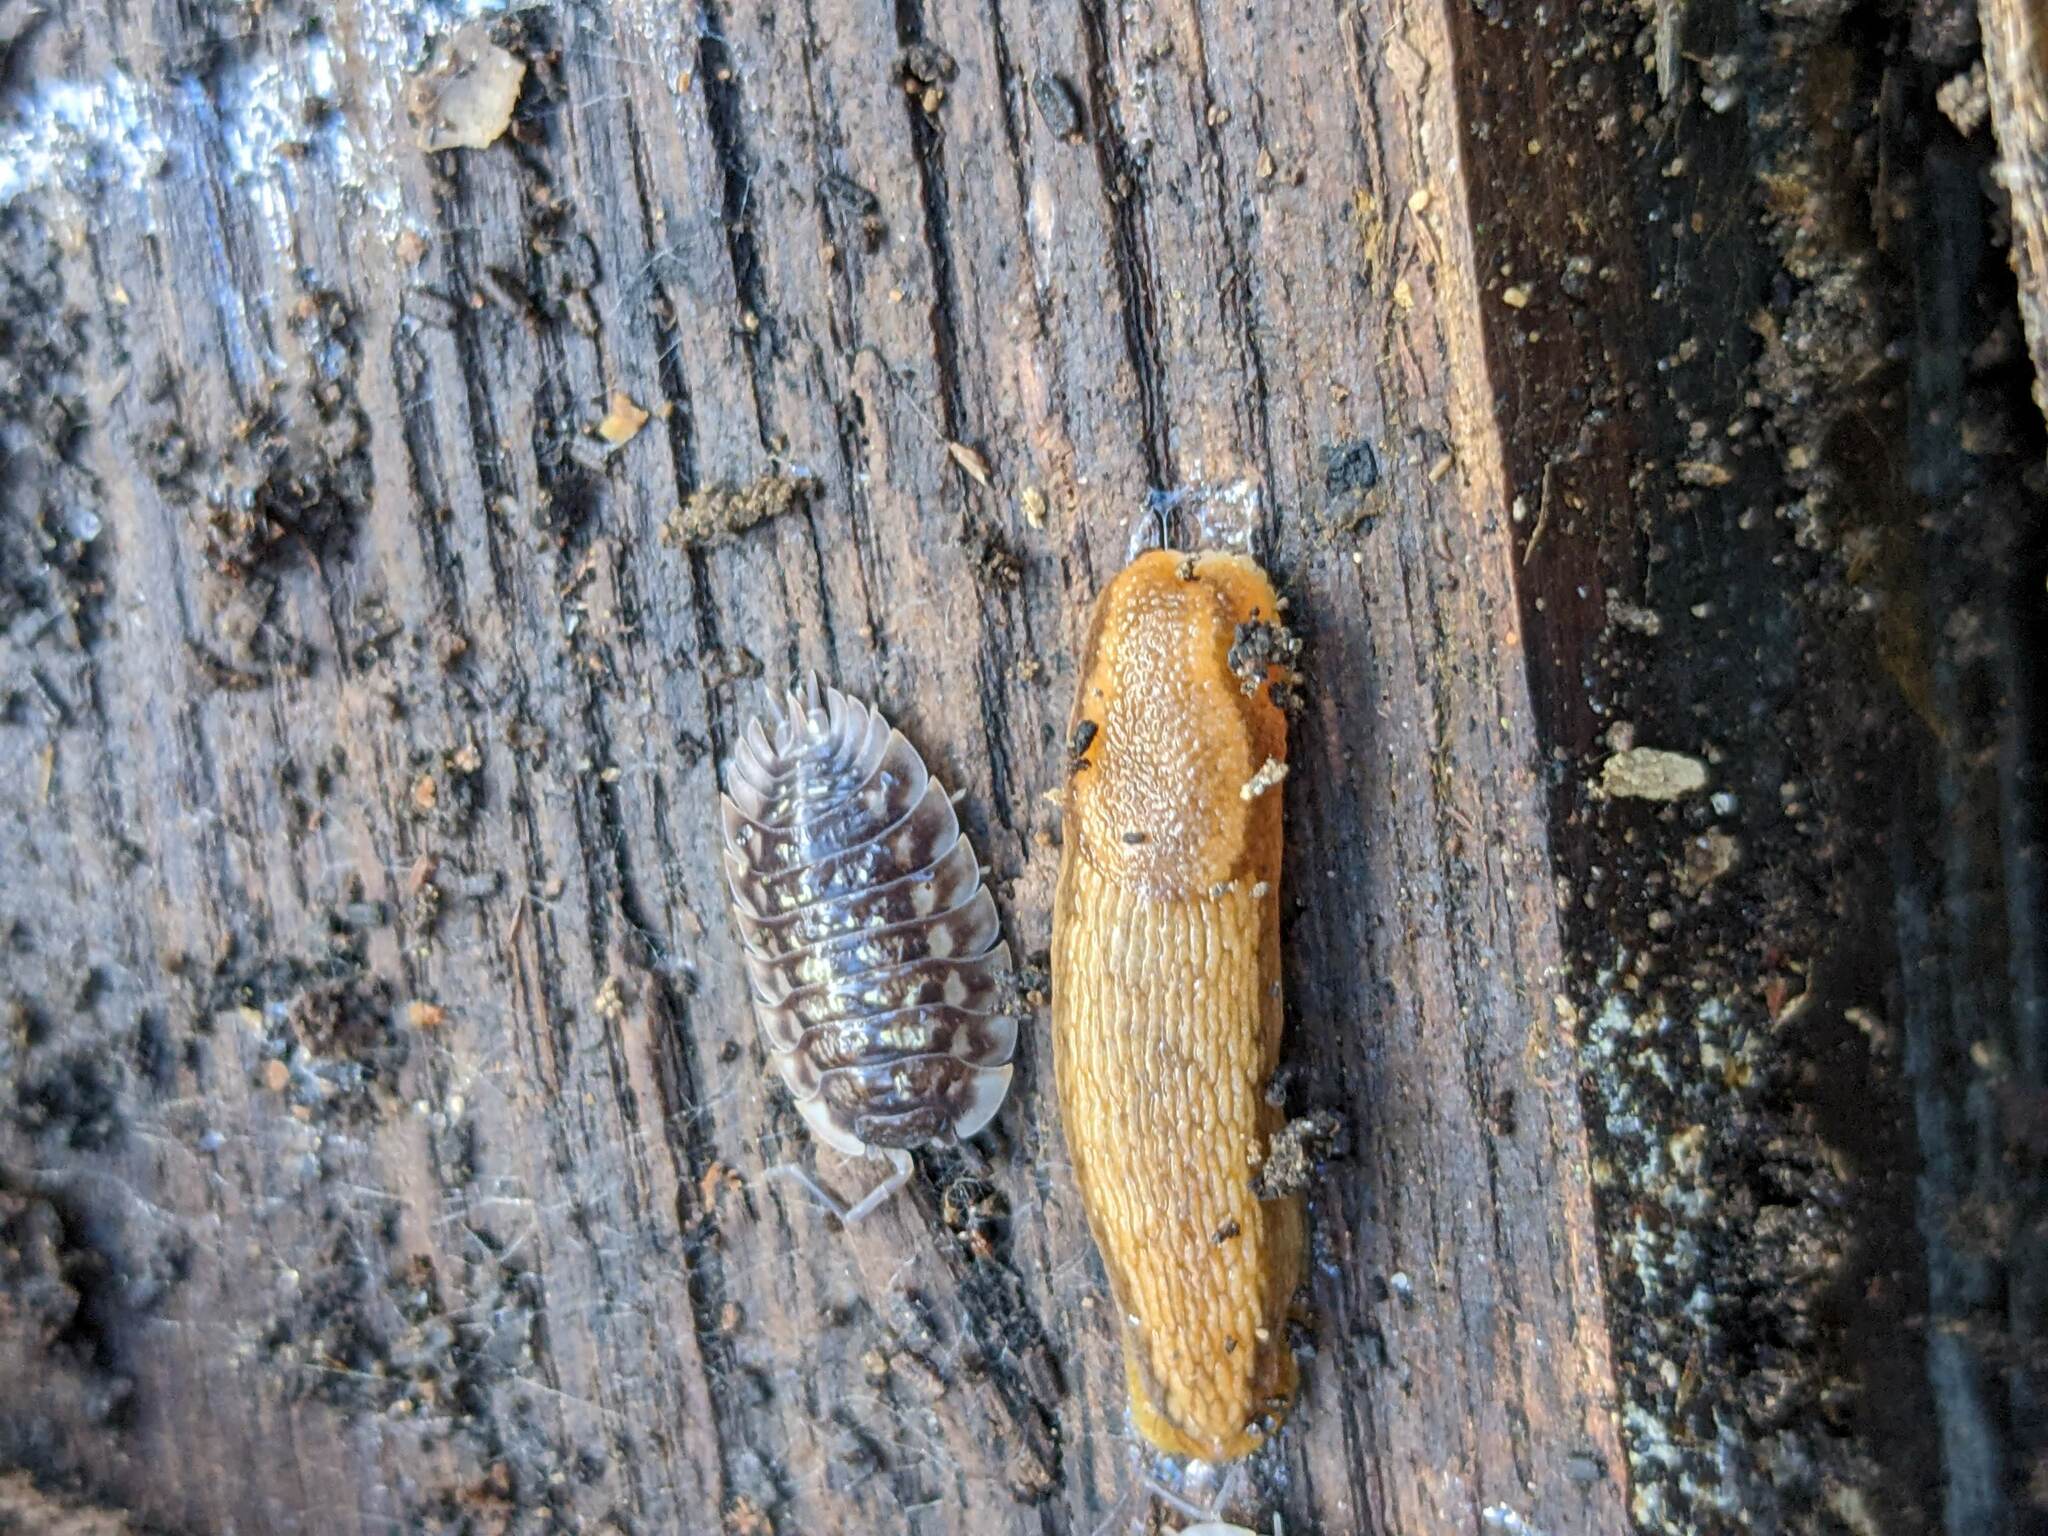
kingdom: Animalia
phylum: Arthropoda
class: Malacostraca
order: Isopoda
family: Oniscidae
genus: Oniscus
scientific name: Oniscus asellus
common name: Common shiny woodlouse
